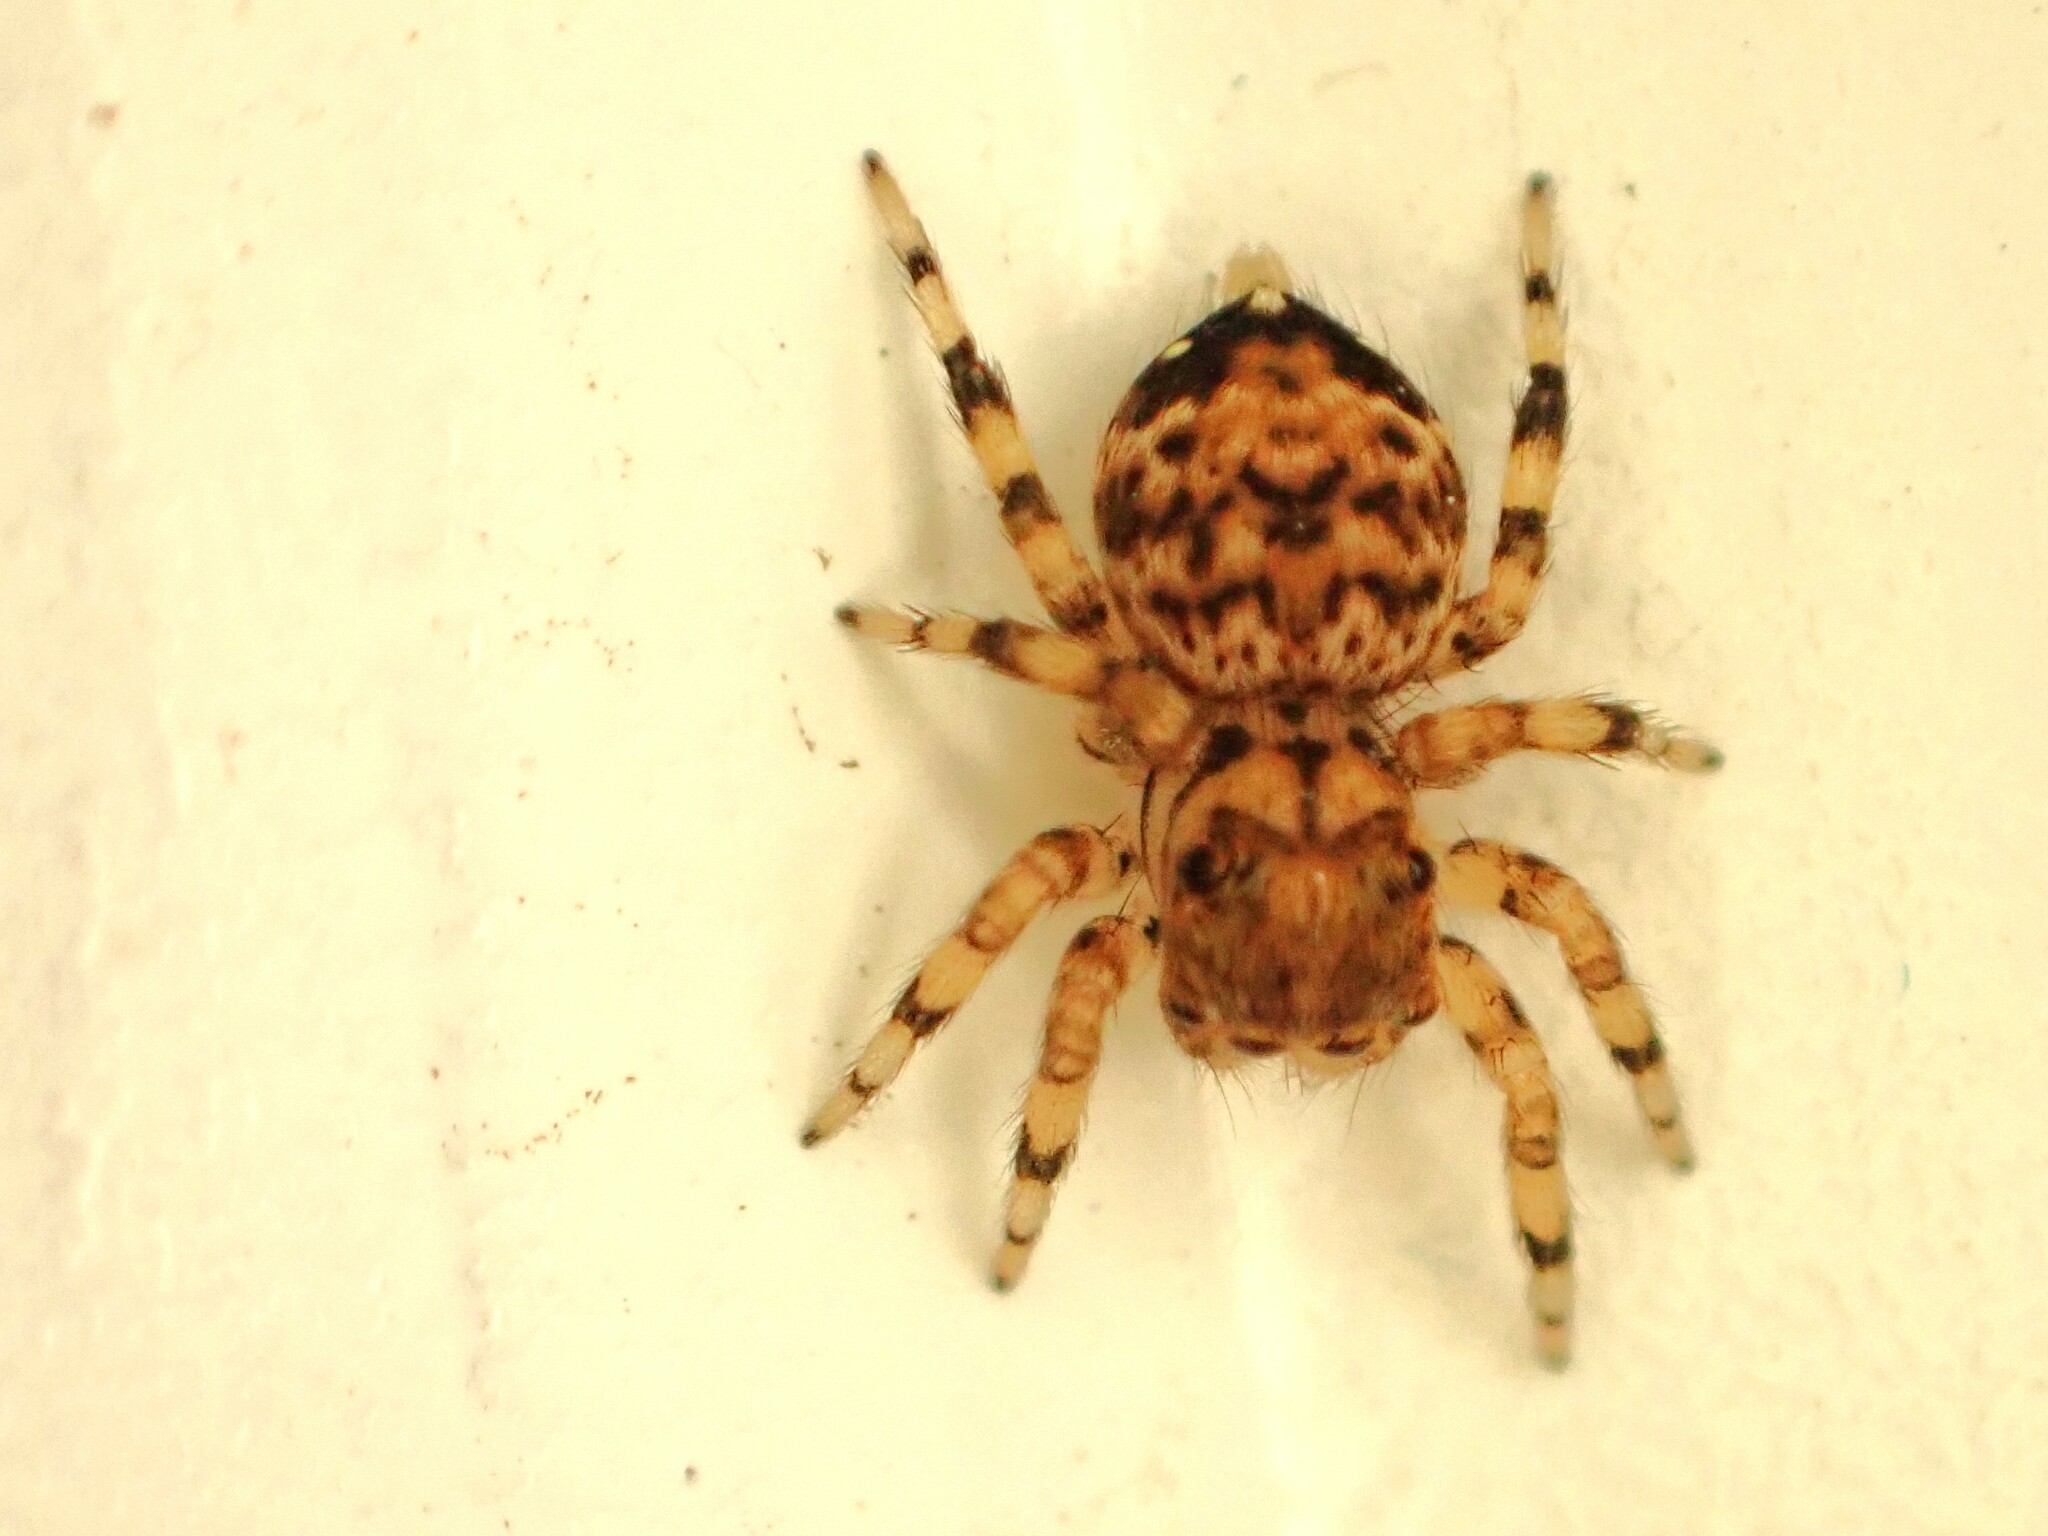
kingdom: Animalia
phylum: Arthropoda
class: Arachnida
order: Araneae
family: Salticidae
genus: Thorelliola
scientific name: Thorelliola ensifera
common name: Jumping spider
